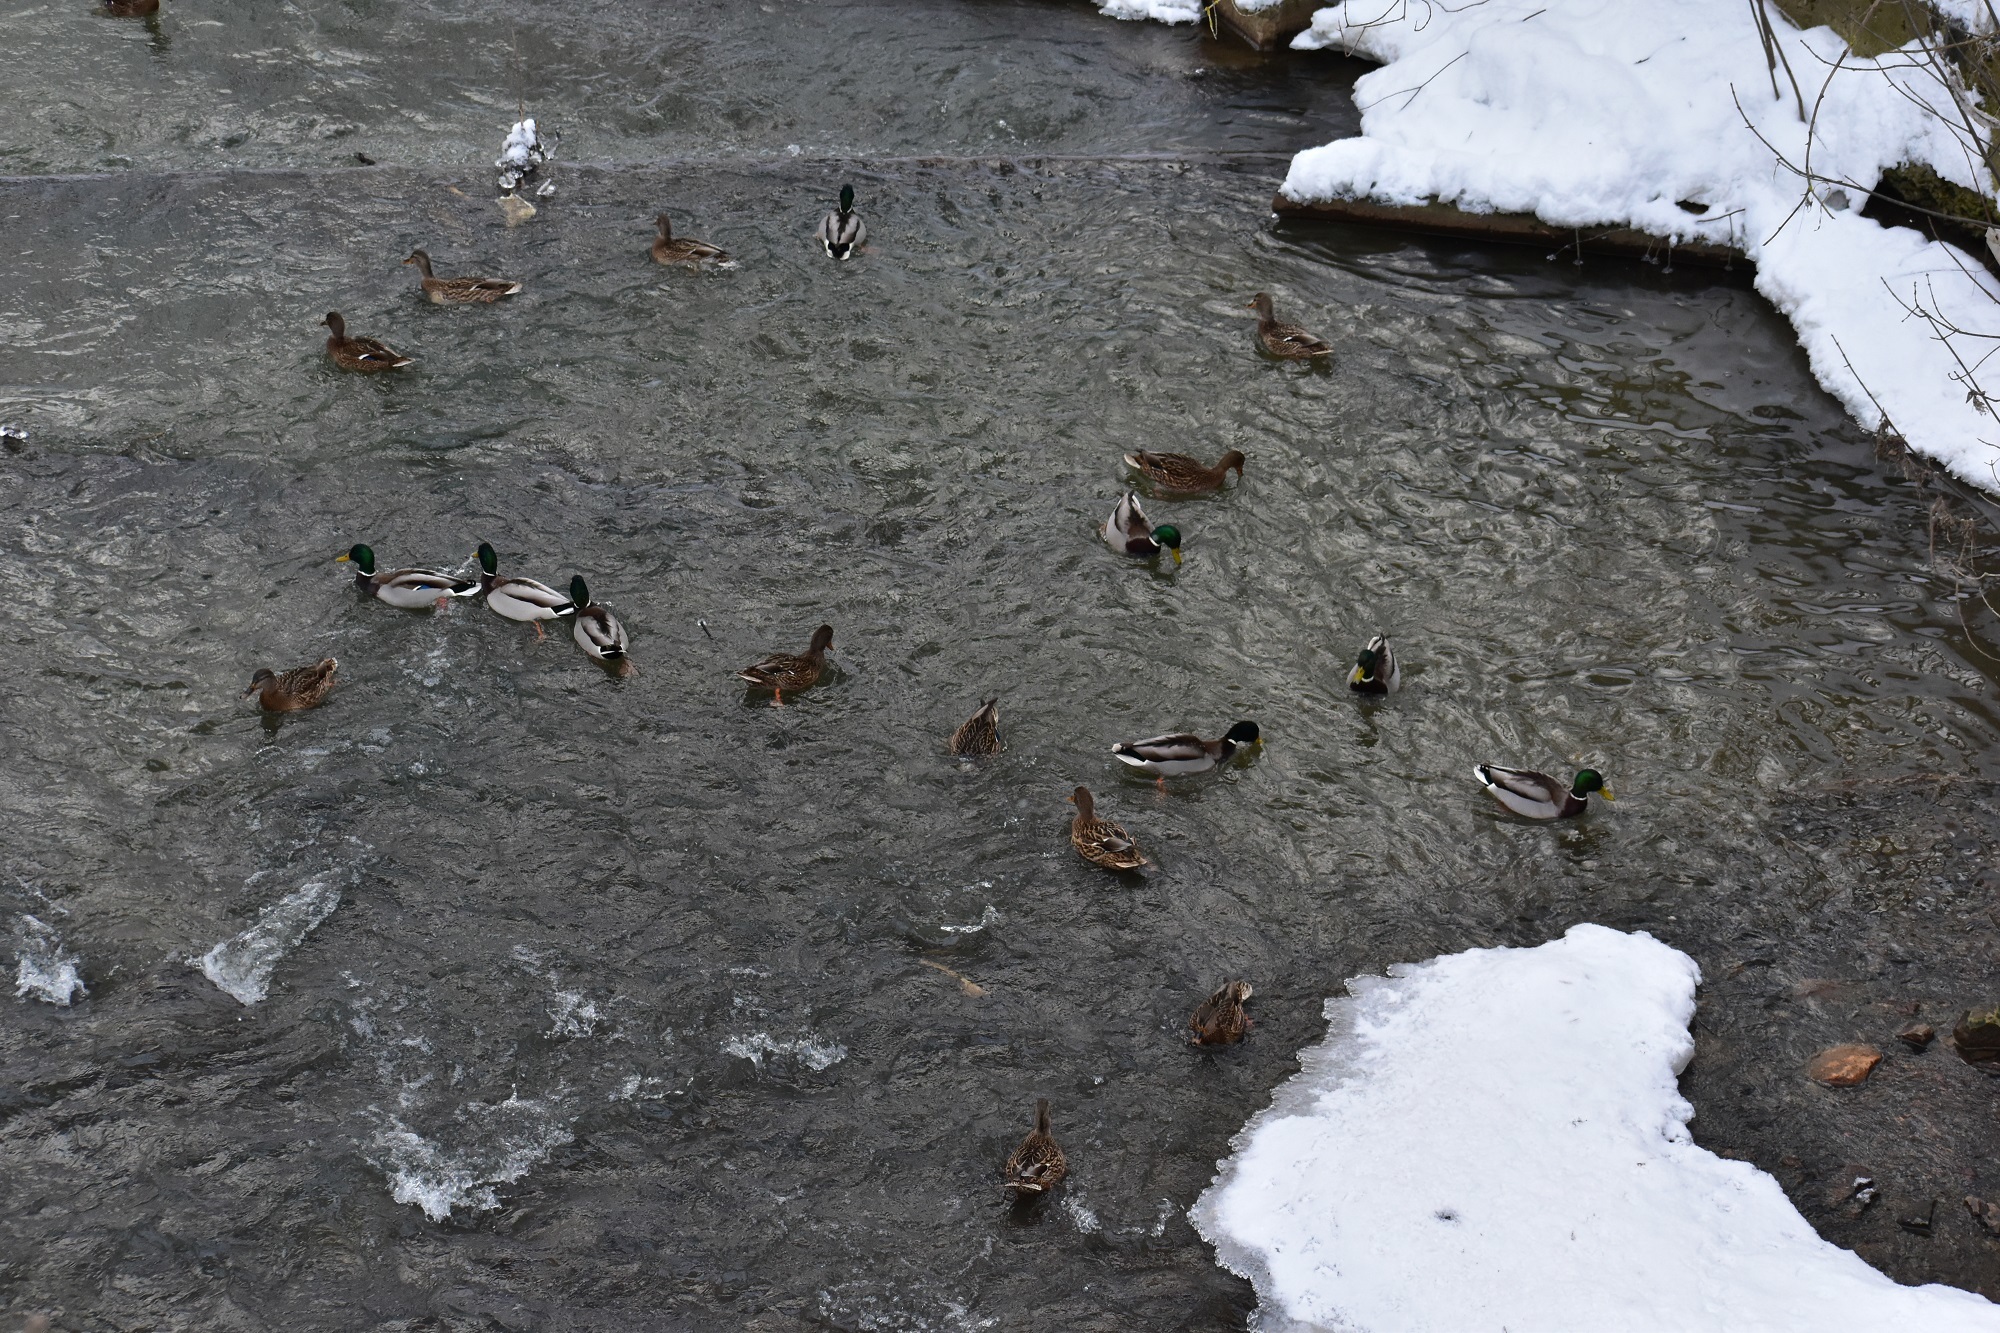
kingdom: Animalia
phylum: Chordata
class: Aves
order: Anseriformes
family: Anatidae
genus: Anas
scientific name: Anas platyrhynchos
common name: Mallard
